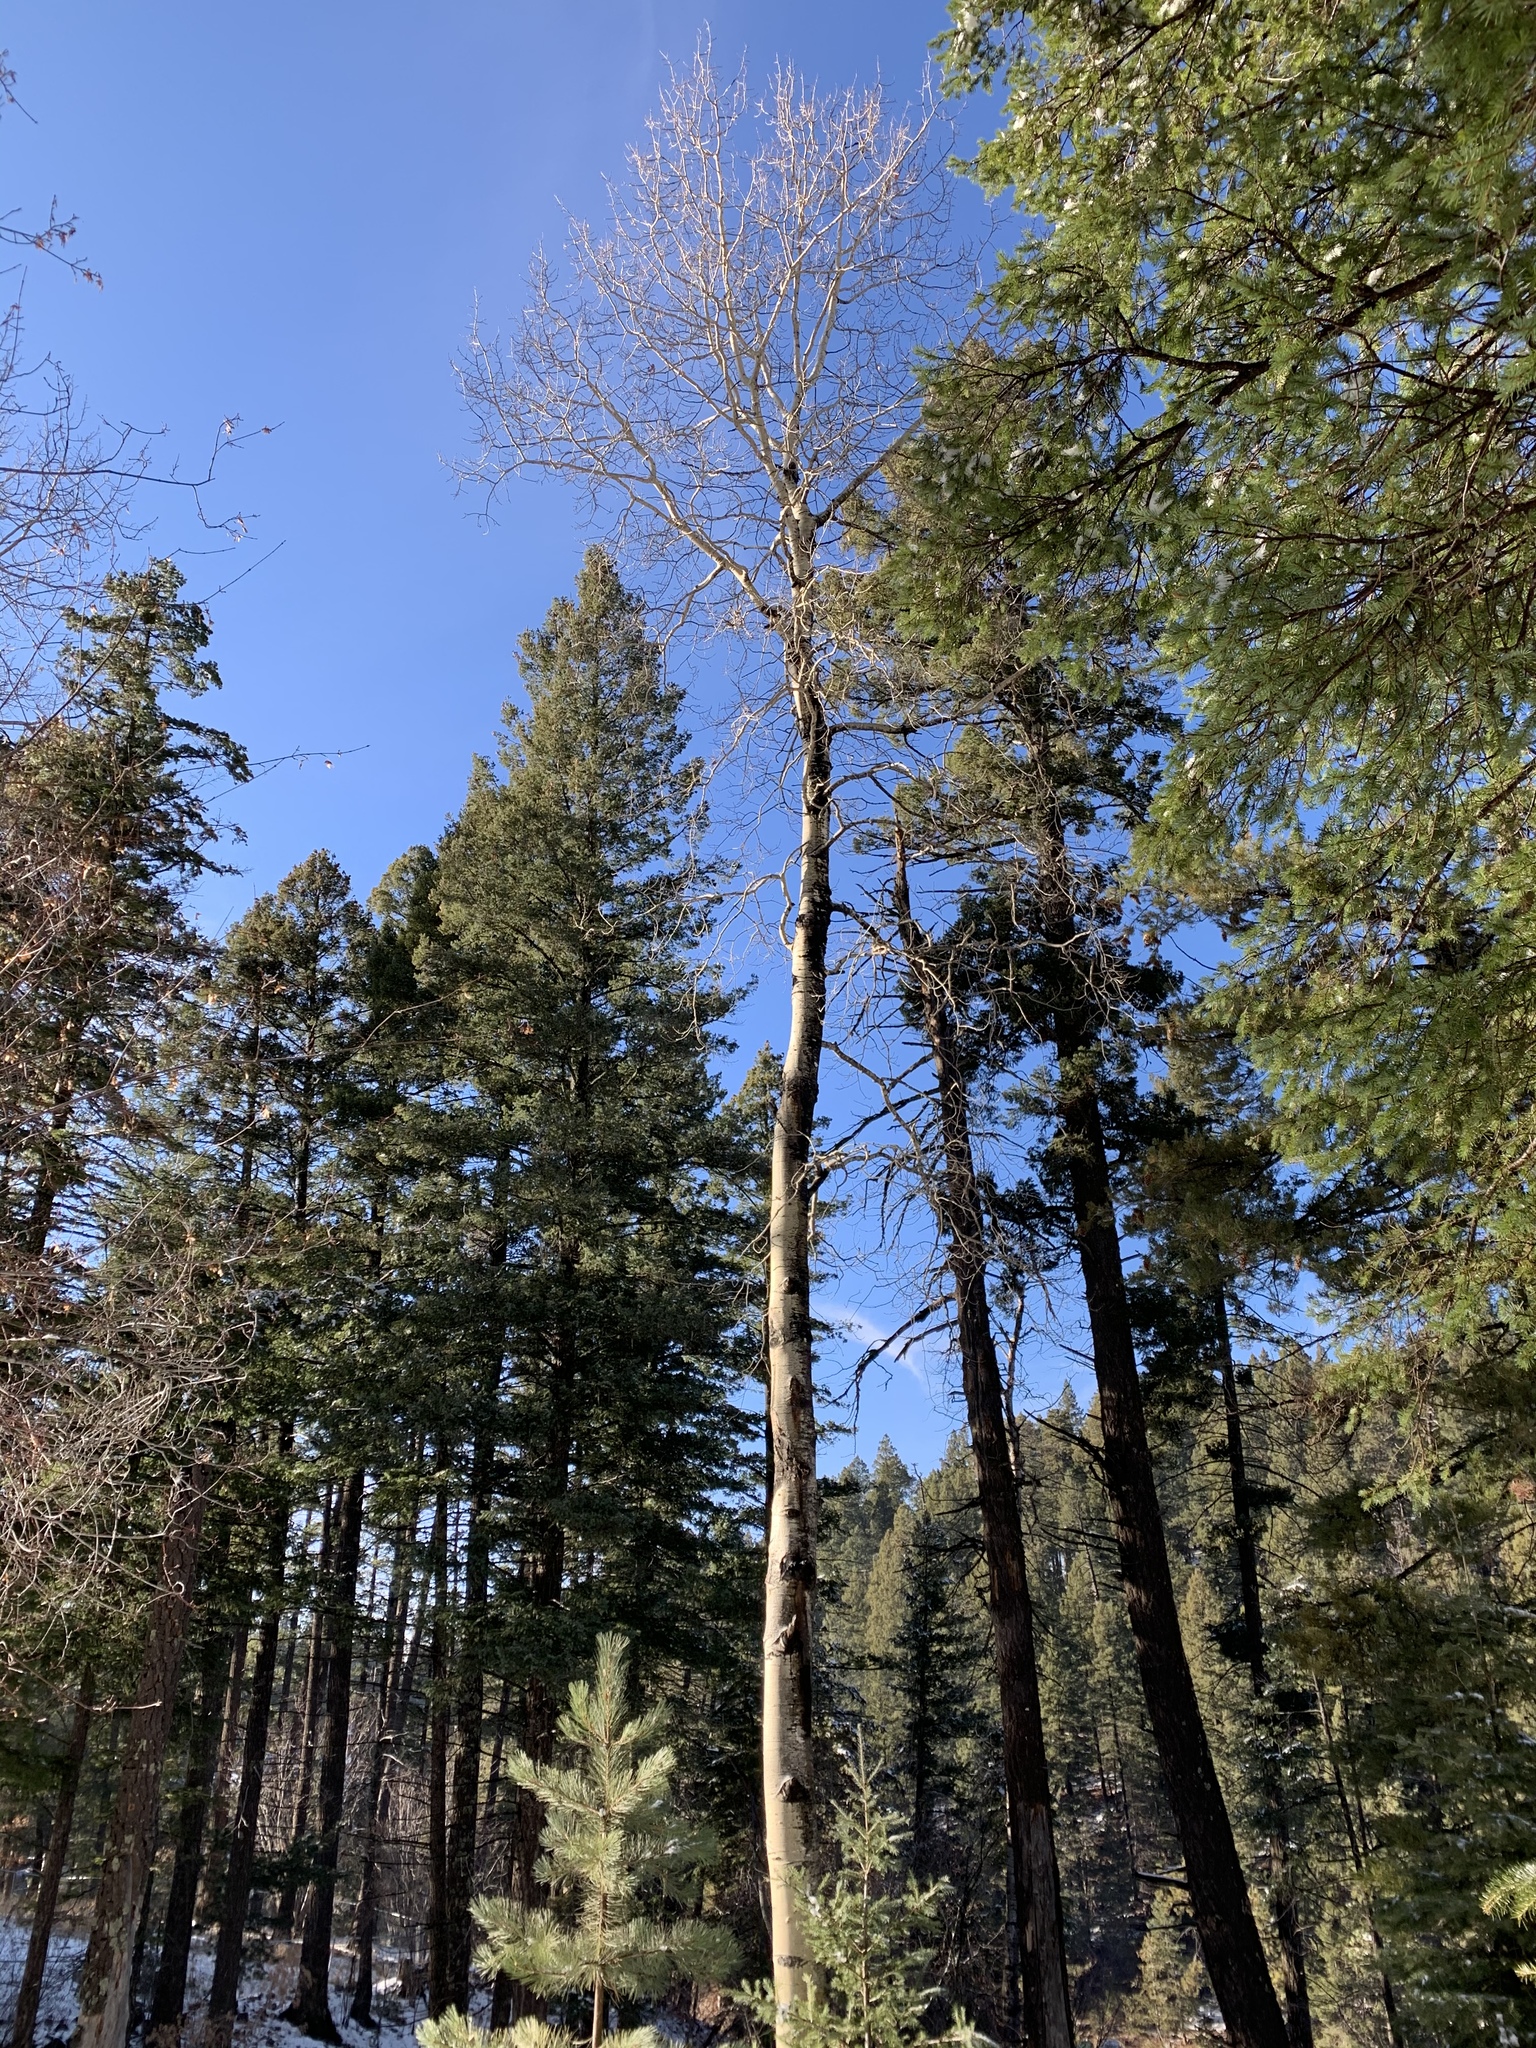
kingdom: Plantae
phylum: Tracheophyta
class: Magnoliopsida
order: Malpighiales
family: Salicaceae
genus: Populus
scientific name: Populus tremuloides
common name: Quaking aspen
